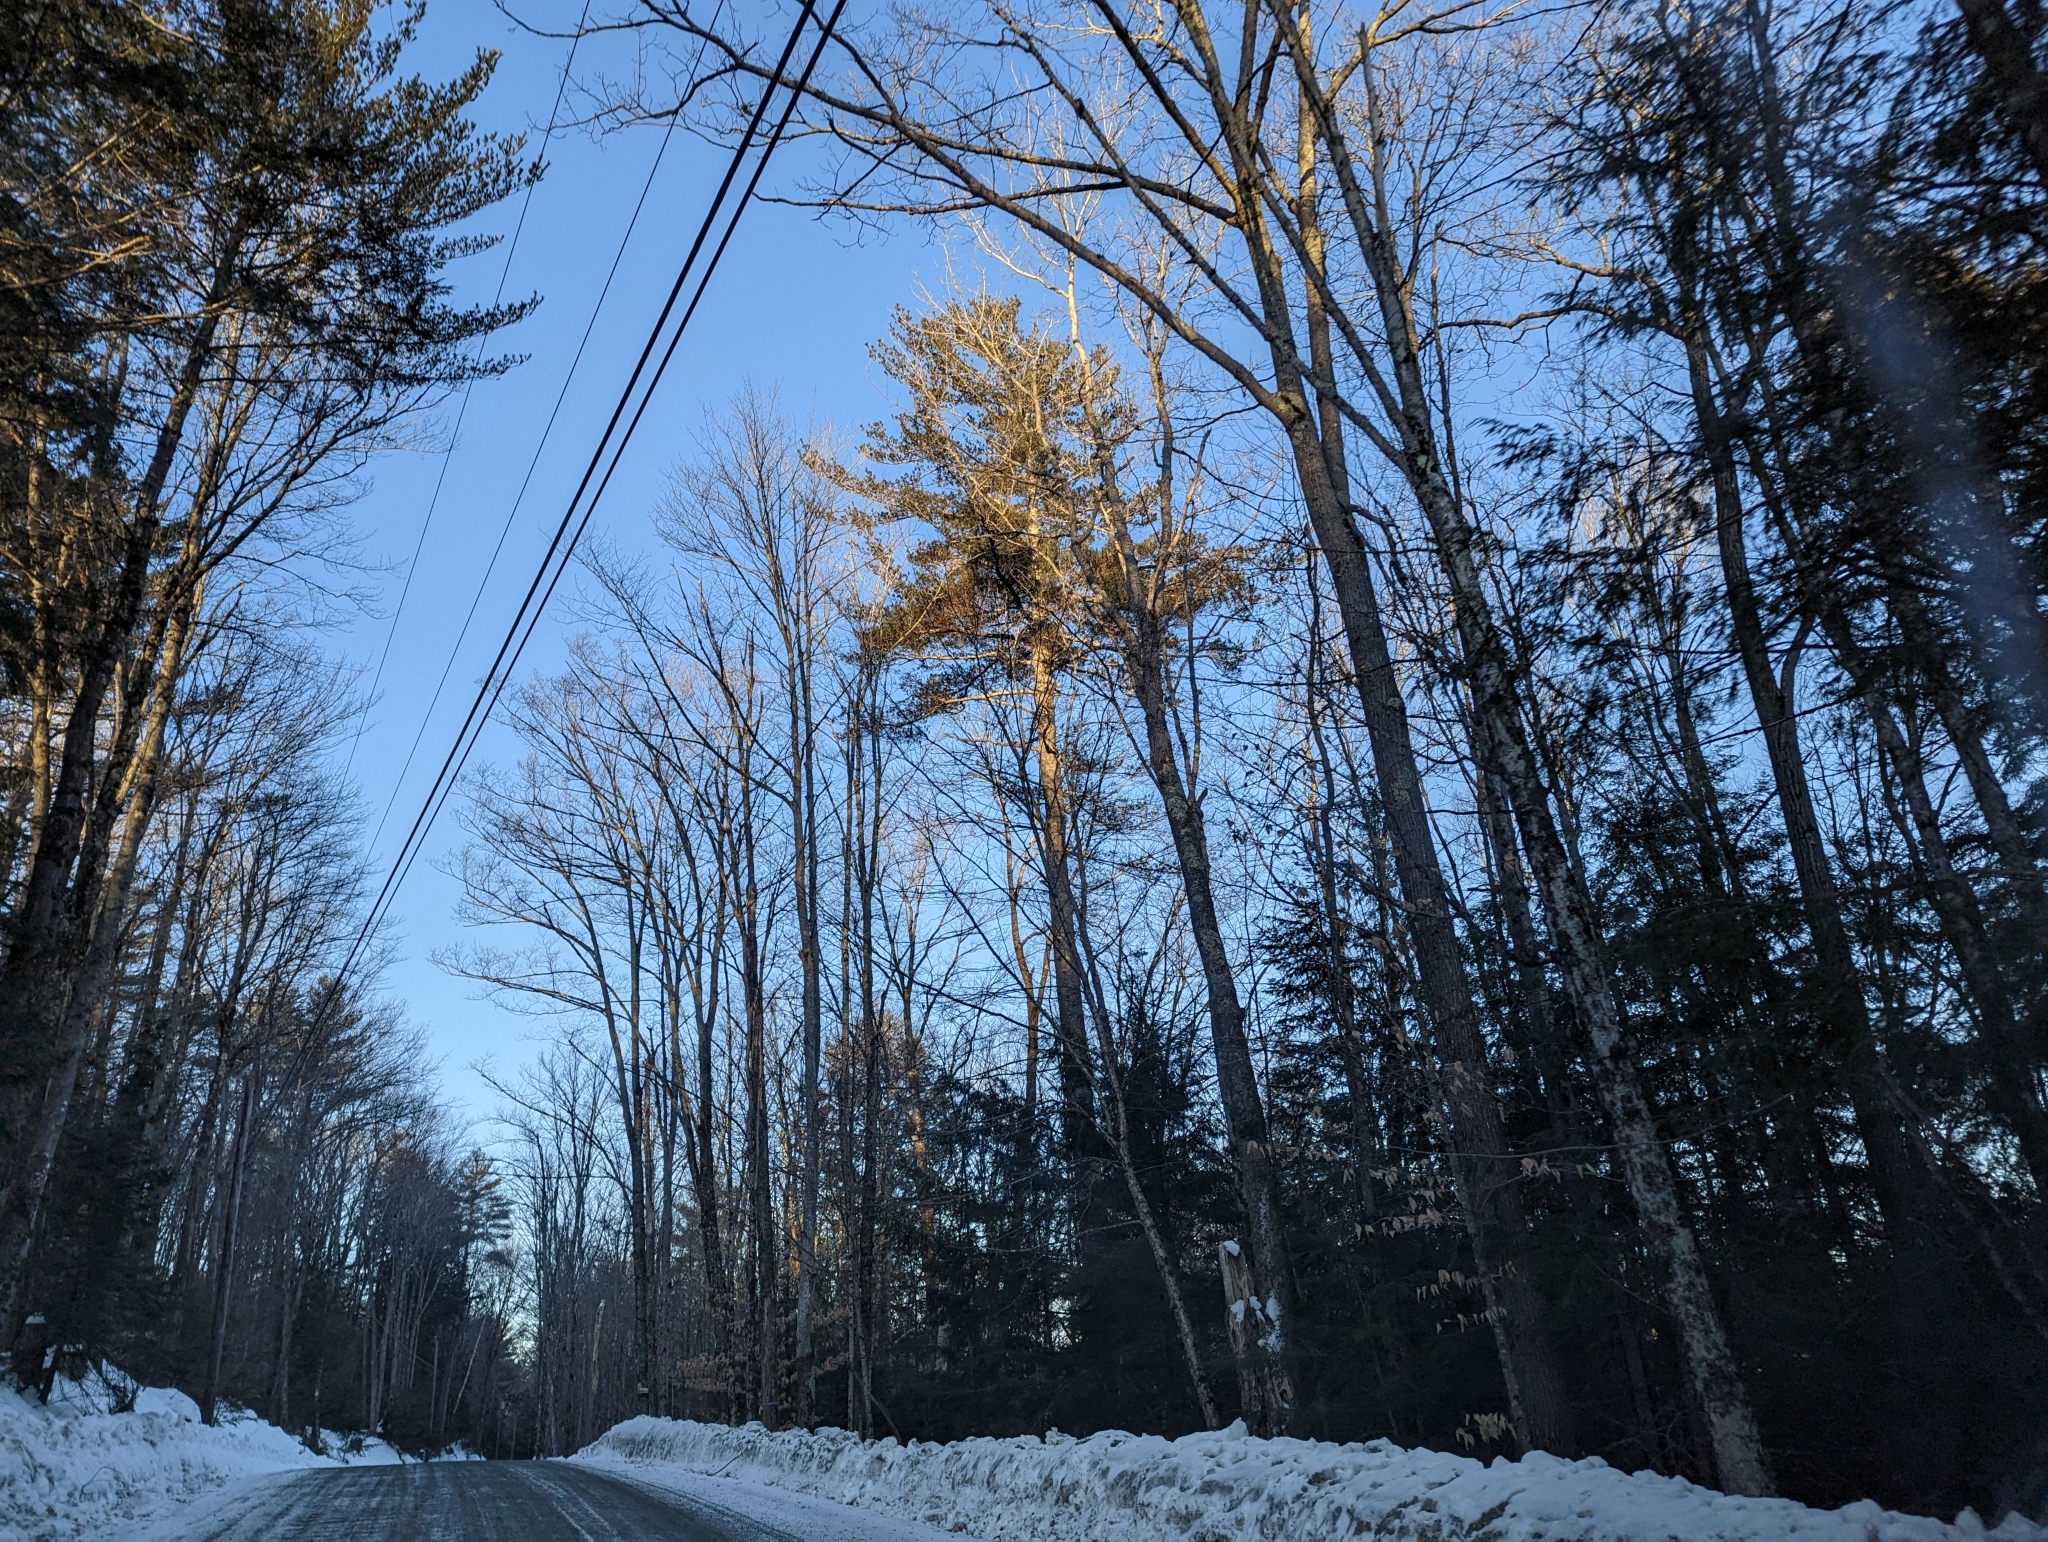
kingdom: Plantae
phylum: Tracheophyta
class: Pinopsida
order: Pinales
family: Pinaceae
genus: Pinus
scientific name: Pinus strobus
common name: Weymouth pine
